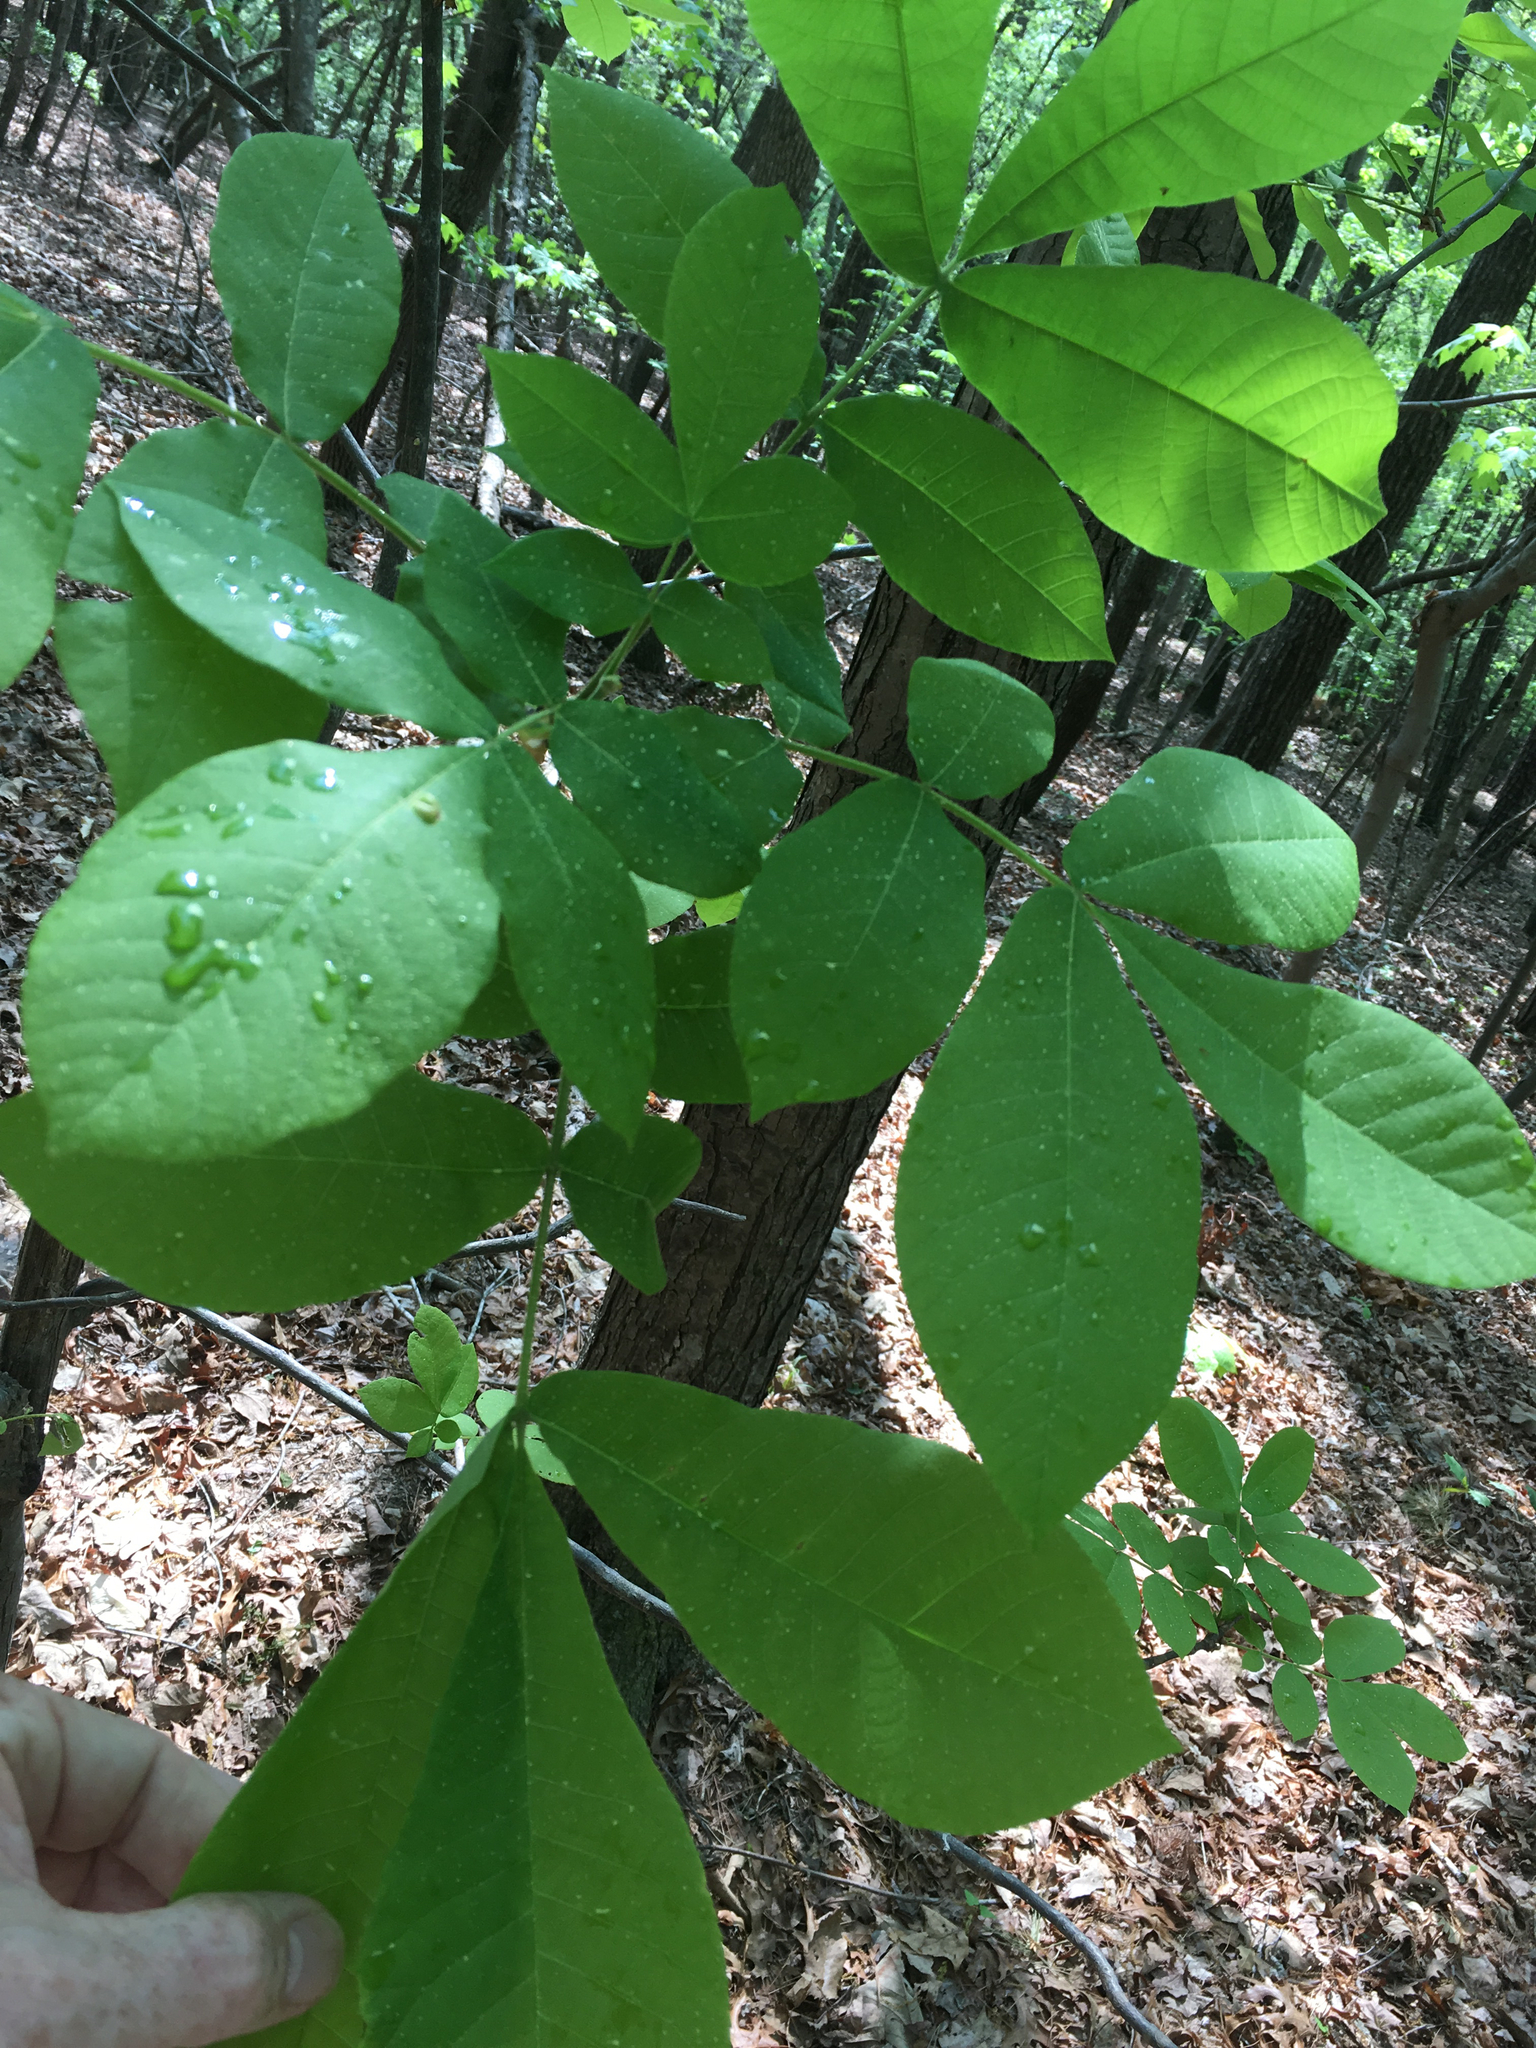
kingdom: Plantae
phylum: Tracheophyta
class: Magnoliopsida
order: Fagales
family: Juglandaceae
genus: Carya
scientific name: Carya alba
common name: Mockernut hickory
